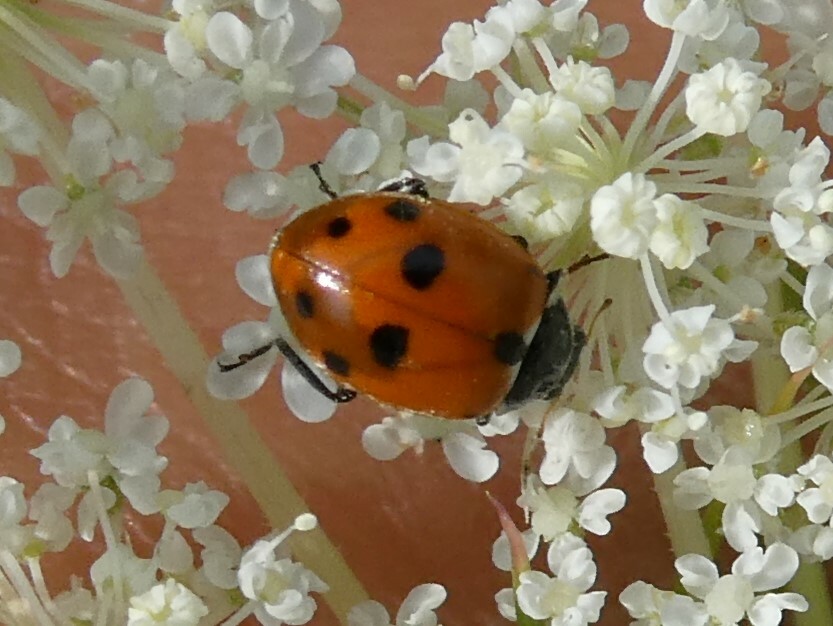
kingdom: Animalia
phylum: Arthropoda
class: Insecta
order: Coleoptera
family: Coccinellidae
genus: Hippodamia
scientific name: Hippodamia variegata
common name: Ladybird beetle
